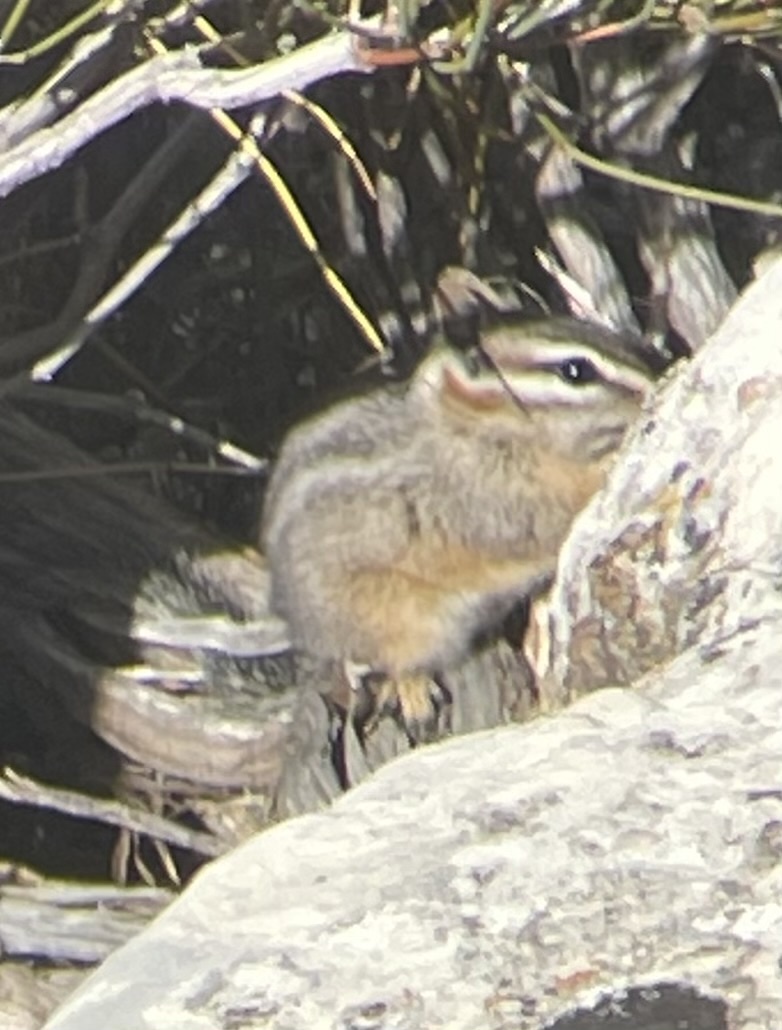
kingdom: Animalia
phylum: Chordata
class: Mammalia
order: Rodentia
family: Sciuridae
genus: Tamias
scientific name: Tamias dorsalis
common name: Cliff chipmunk
